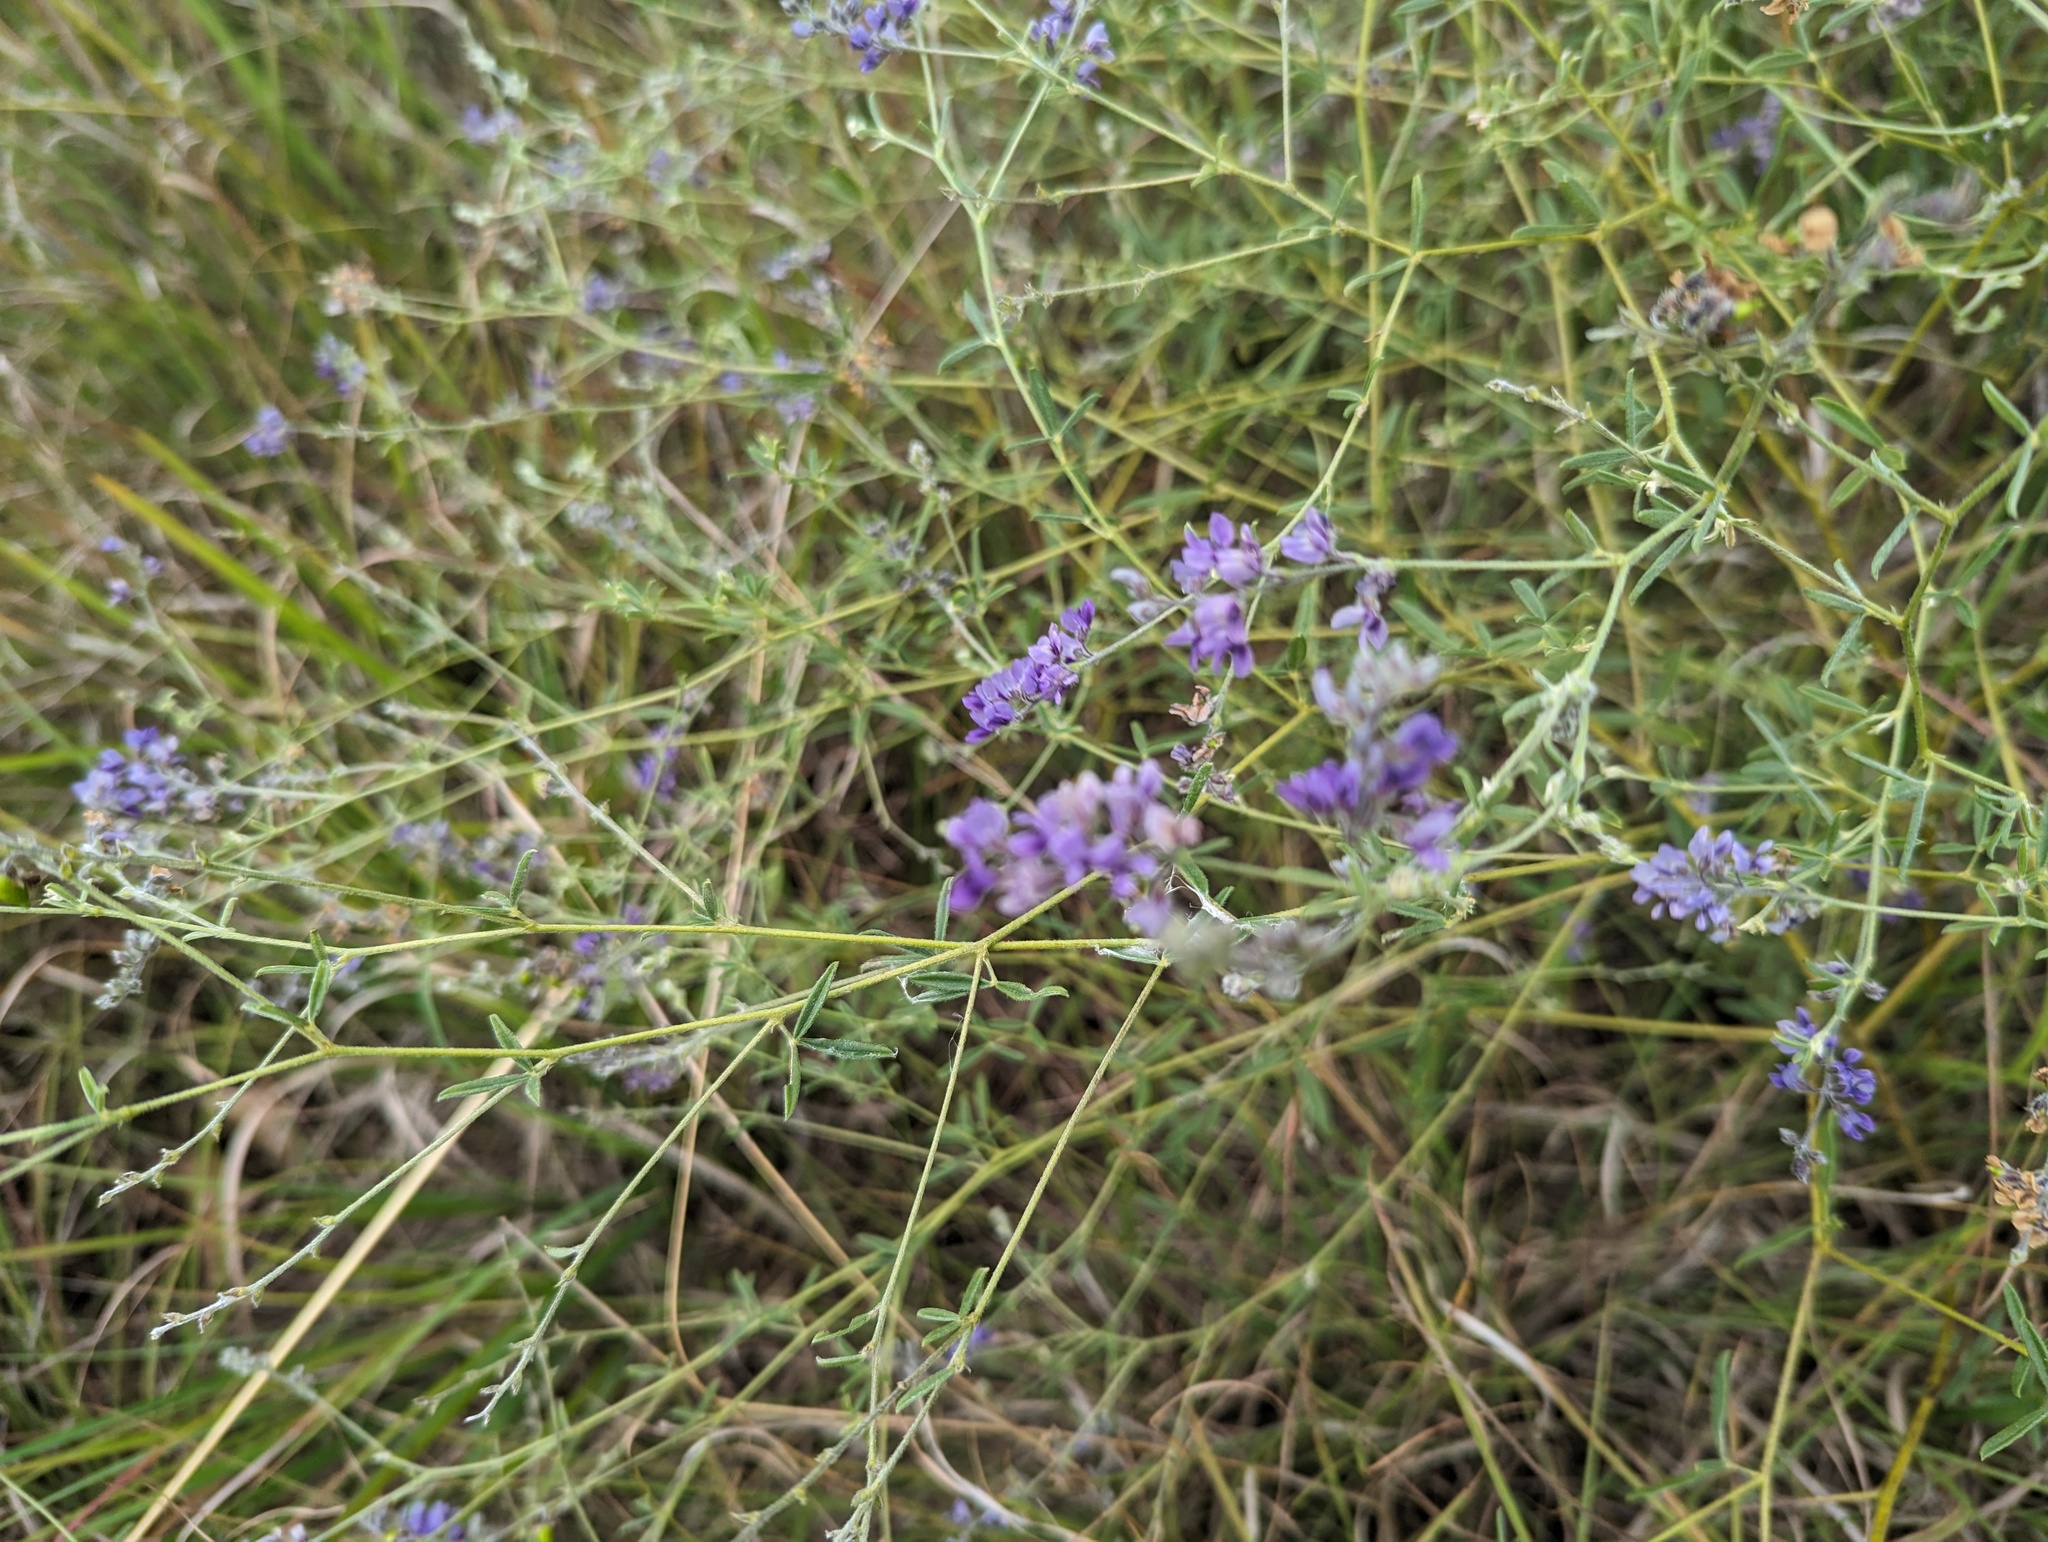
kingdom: Plantae
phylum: Tracheophyta
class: Magnoliopsida
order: Fabales
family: Fabaceae
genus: Pediomelum
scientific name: Pediomelum tenuiflorum
